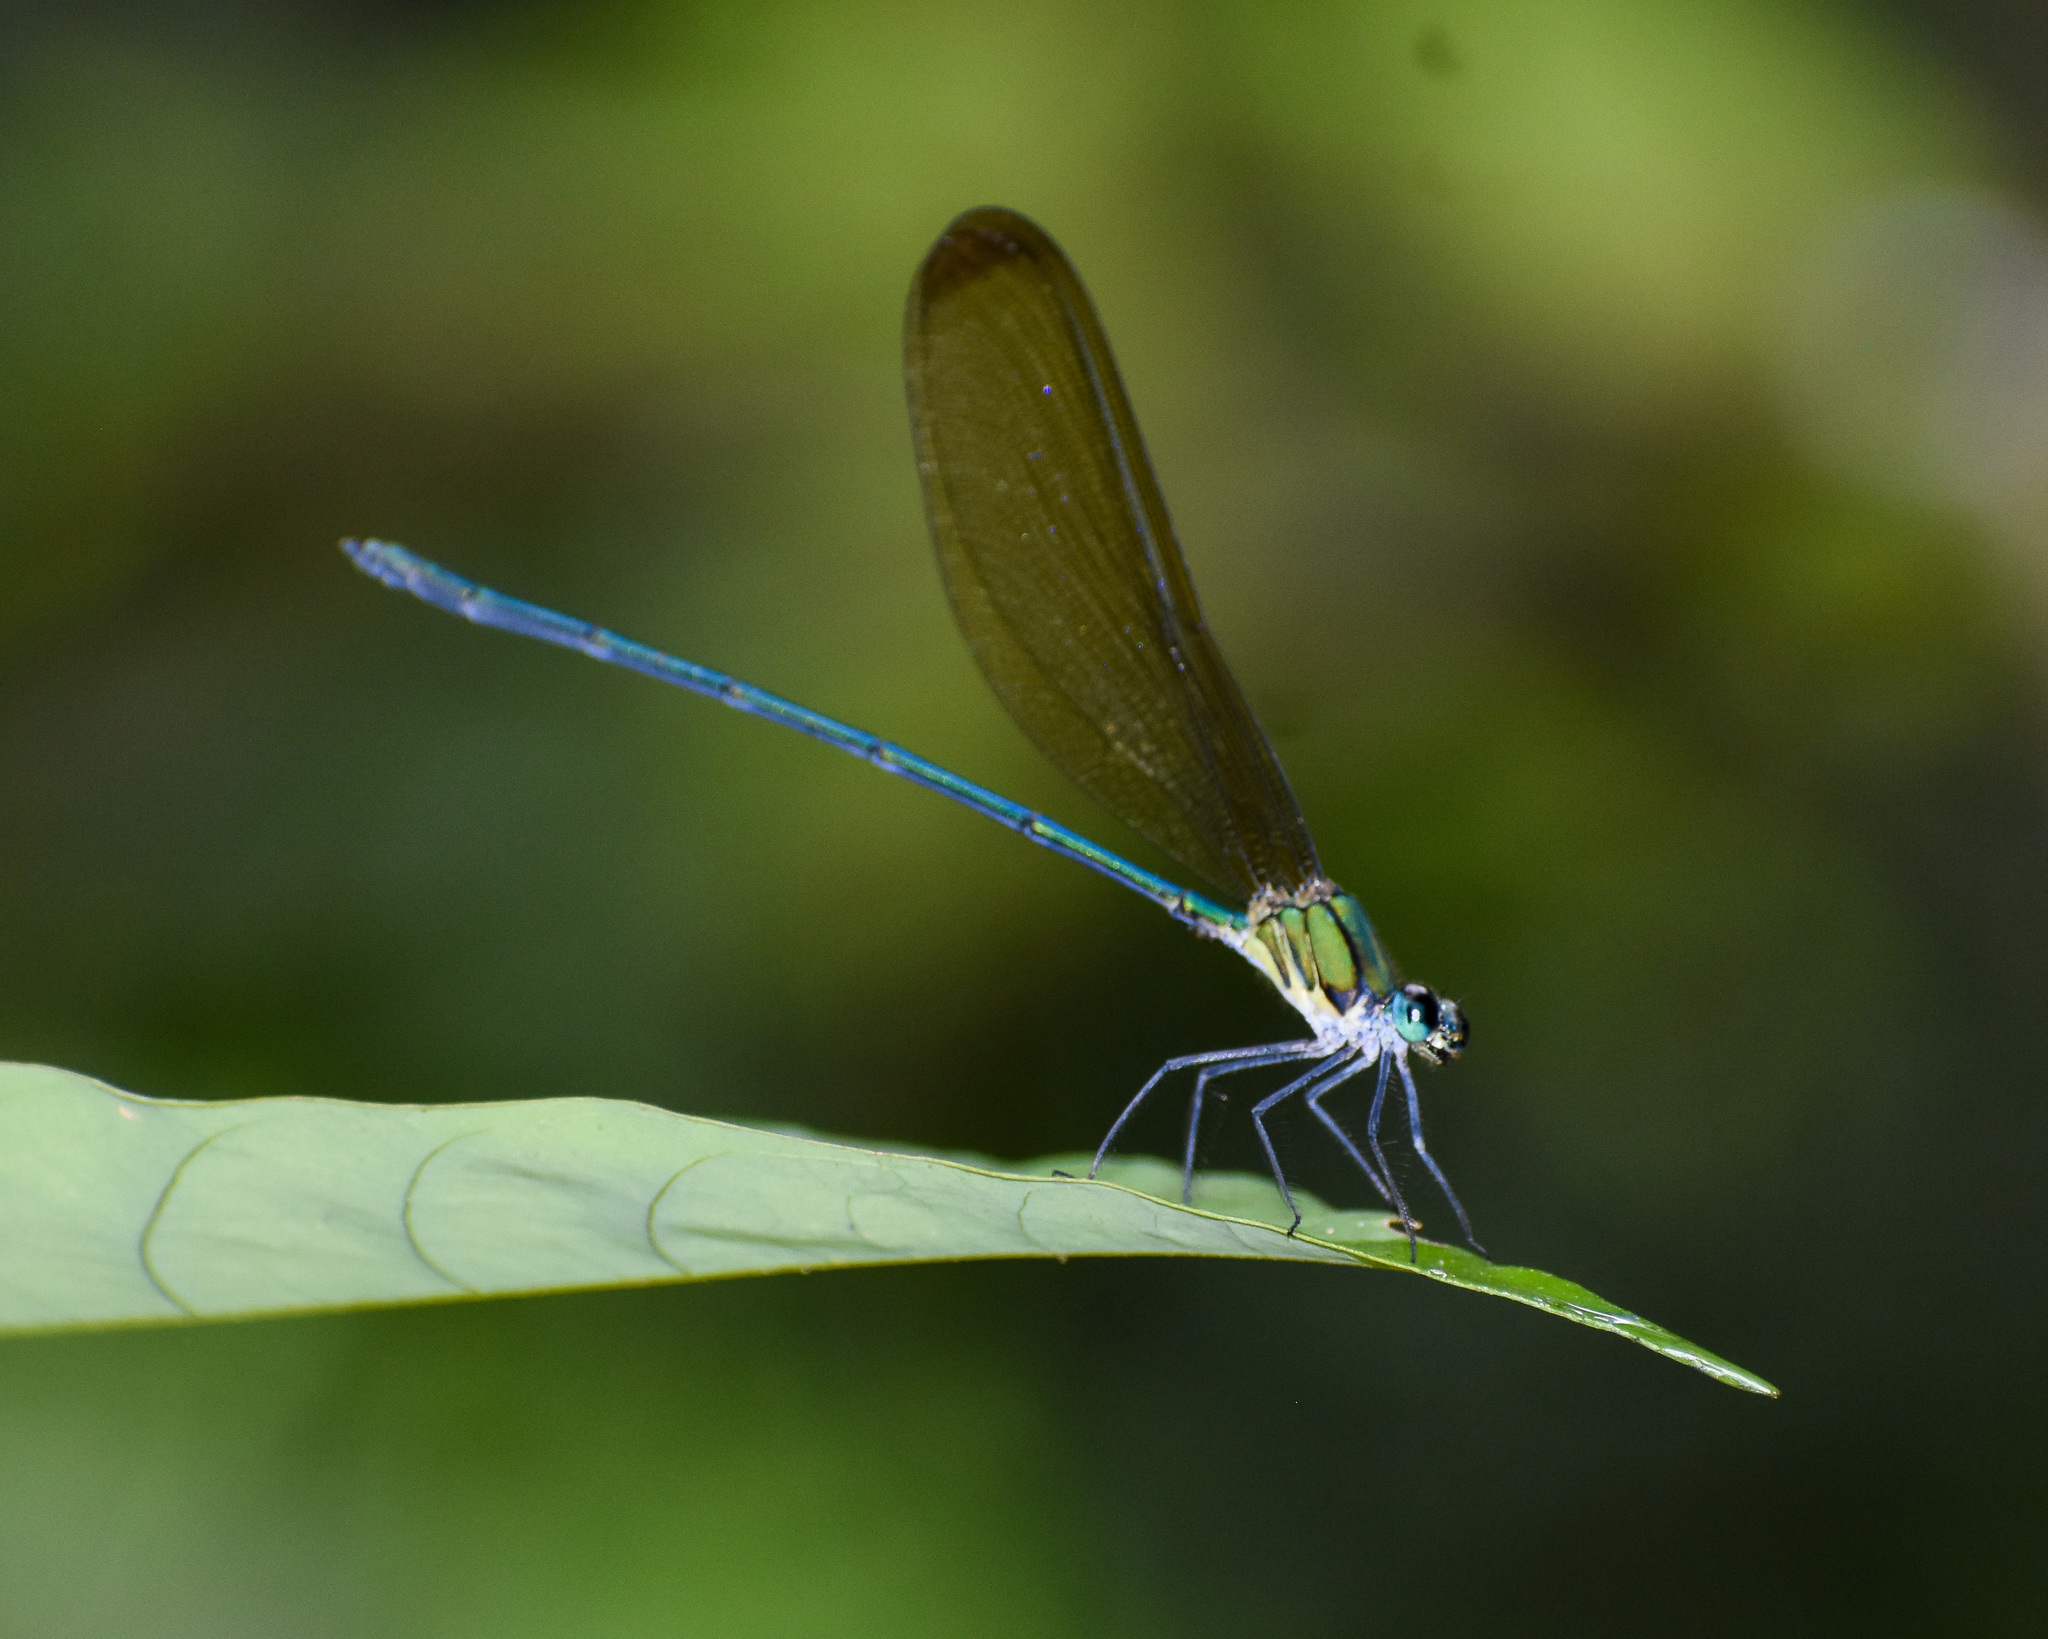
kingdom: Animalia
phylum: Arthropoda
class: Insecta
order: Odonata
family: Calopterygidae
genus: Vestalis
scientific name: Vestalis gracilis
